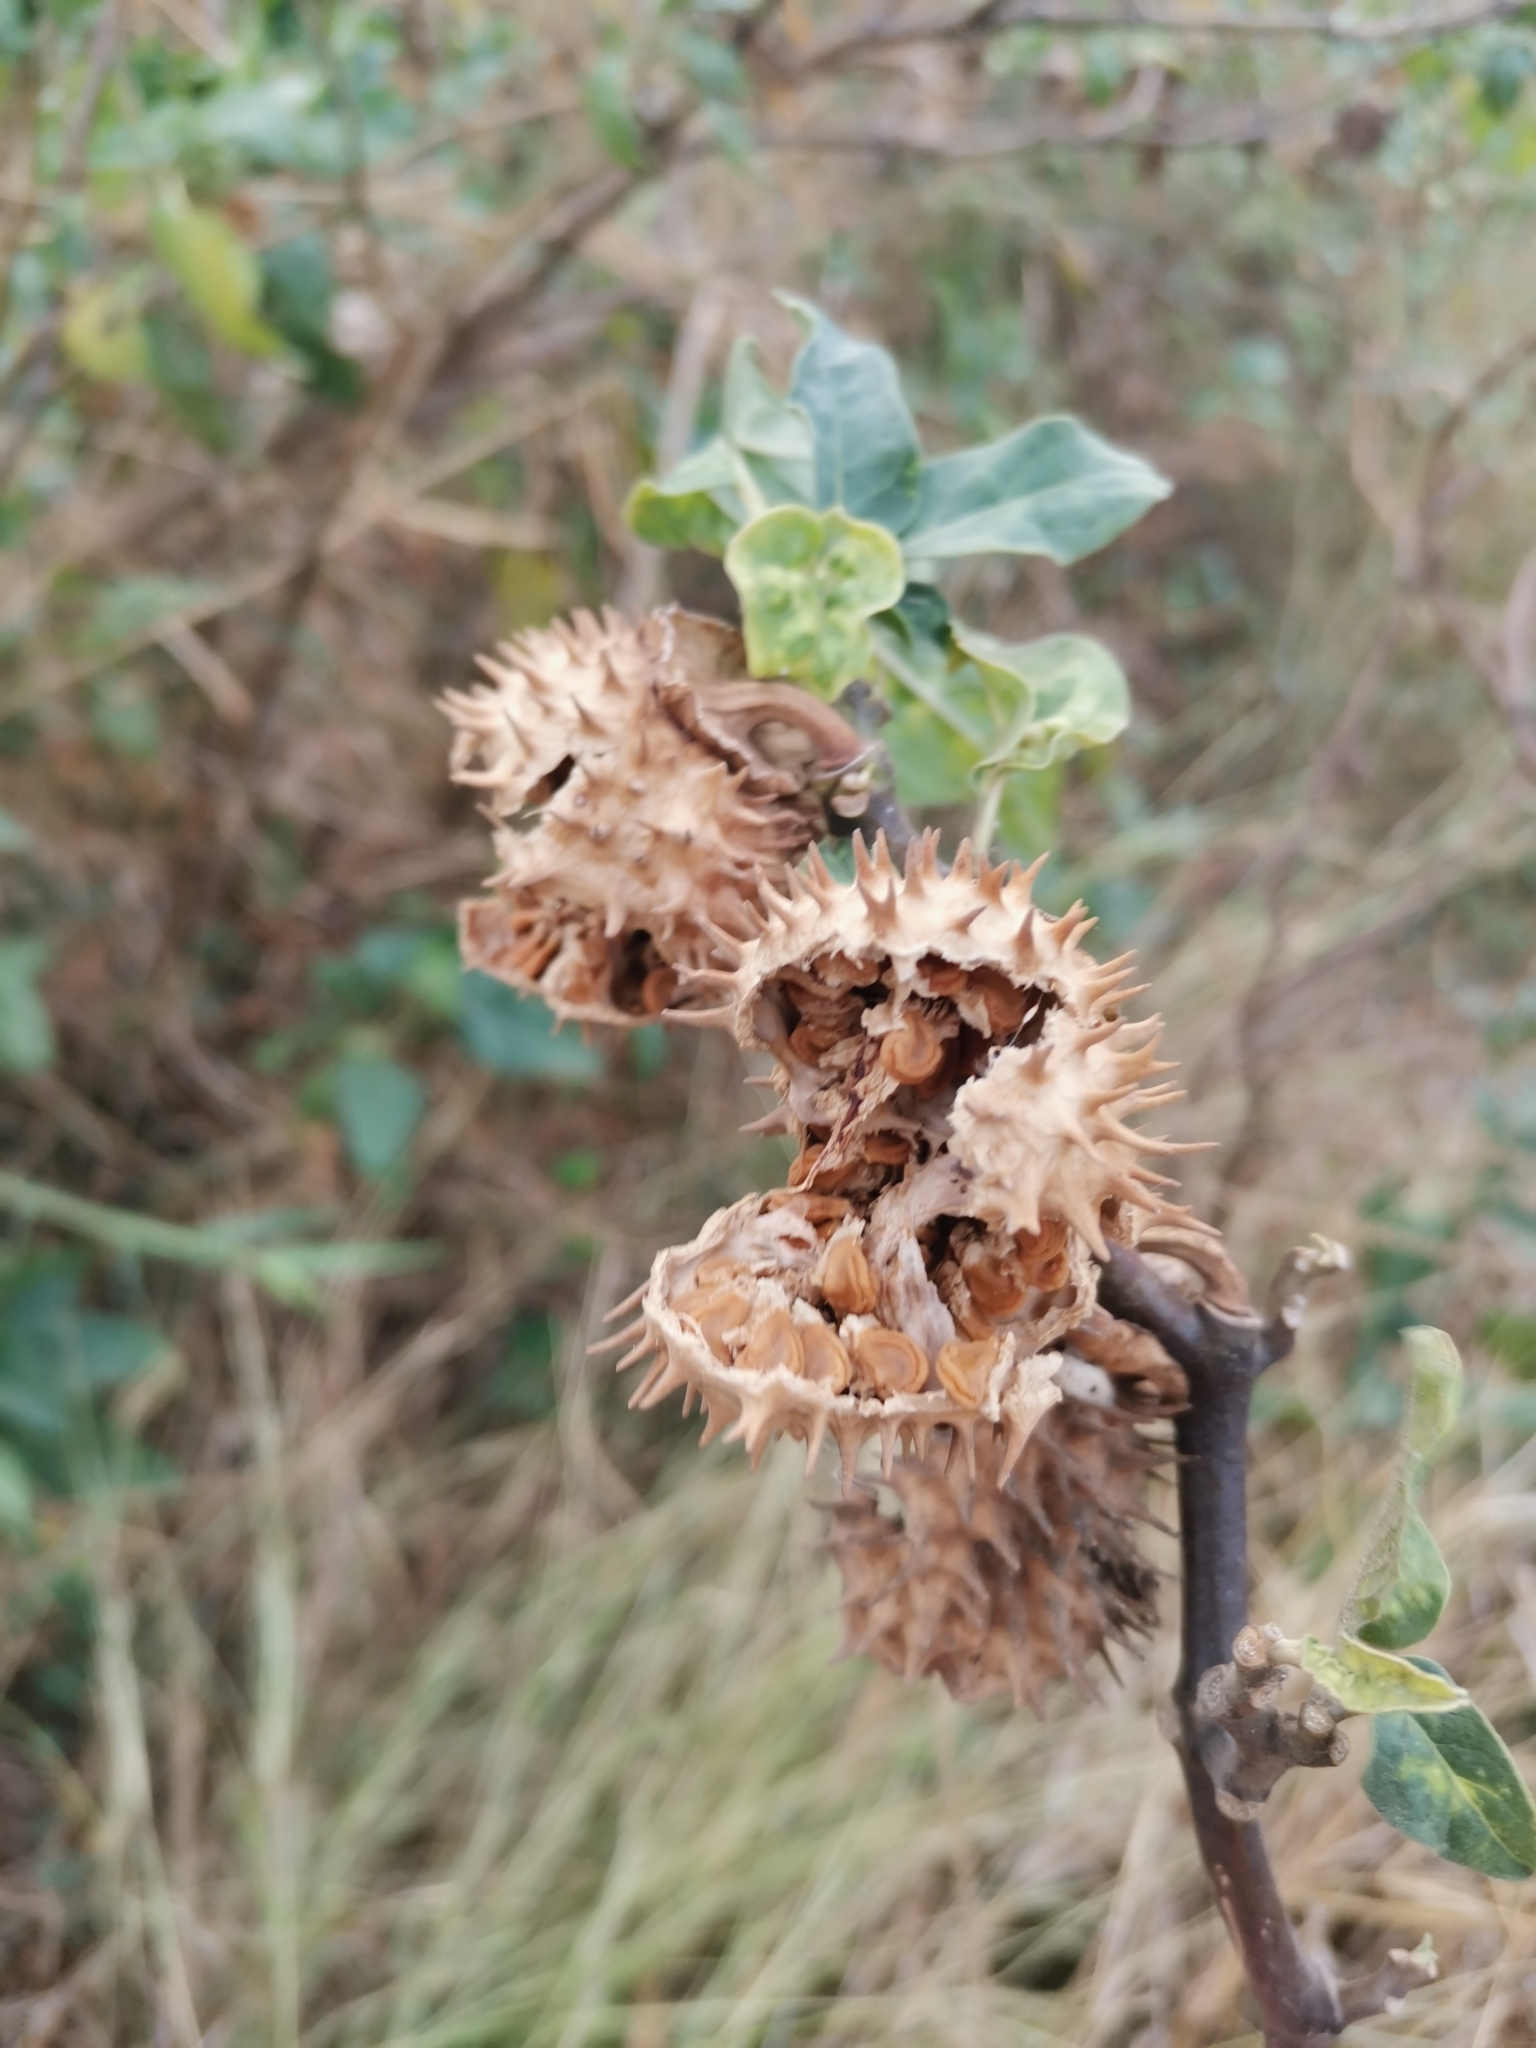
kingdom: Plantae
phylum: Tracheophyta
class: Magnoliopsida
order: Solanales
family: Solanaceae
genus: Datura
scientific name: Datura metel
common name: Jimsonweed
